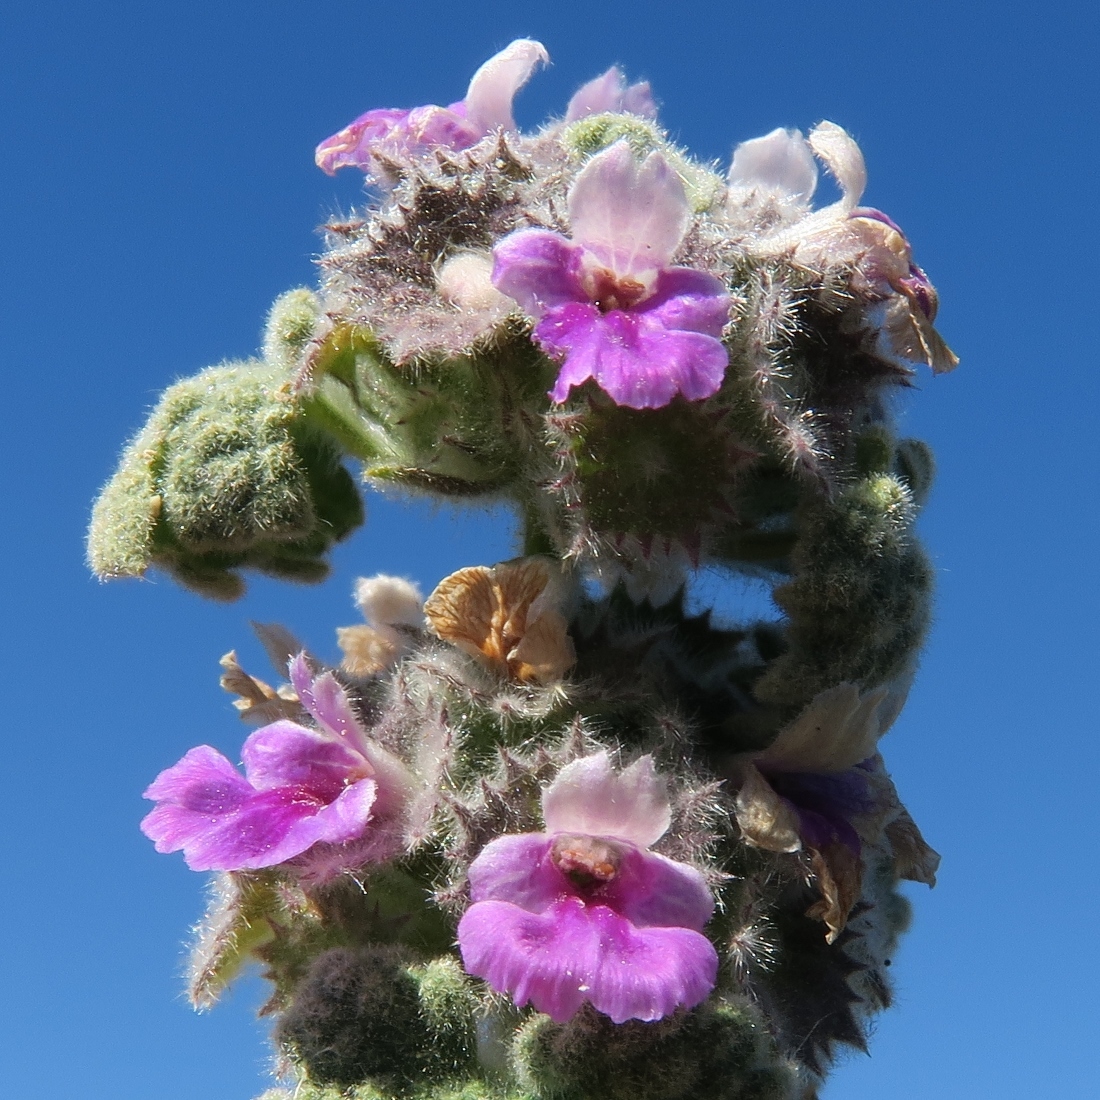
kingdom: Plantae
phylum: Tracheophyta
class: Magnoliopsida
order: Lamiales
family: Lamiaceae
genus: Pseudodictamnus
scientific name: Pseudodictamnus africanus
